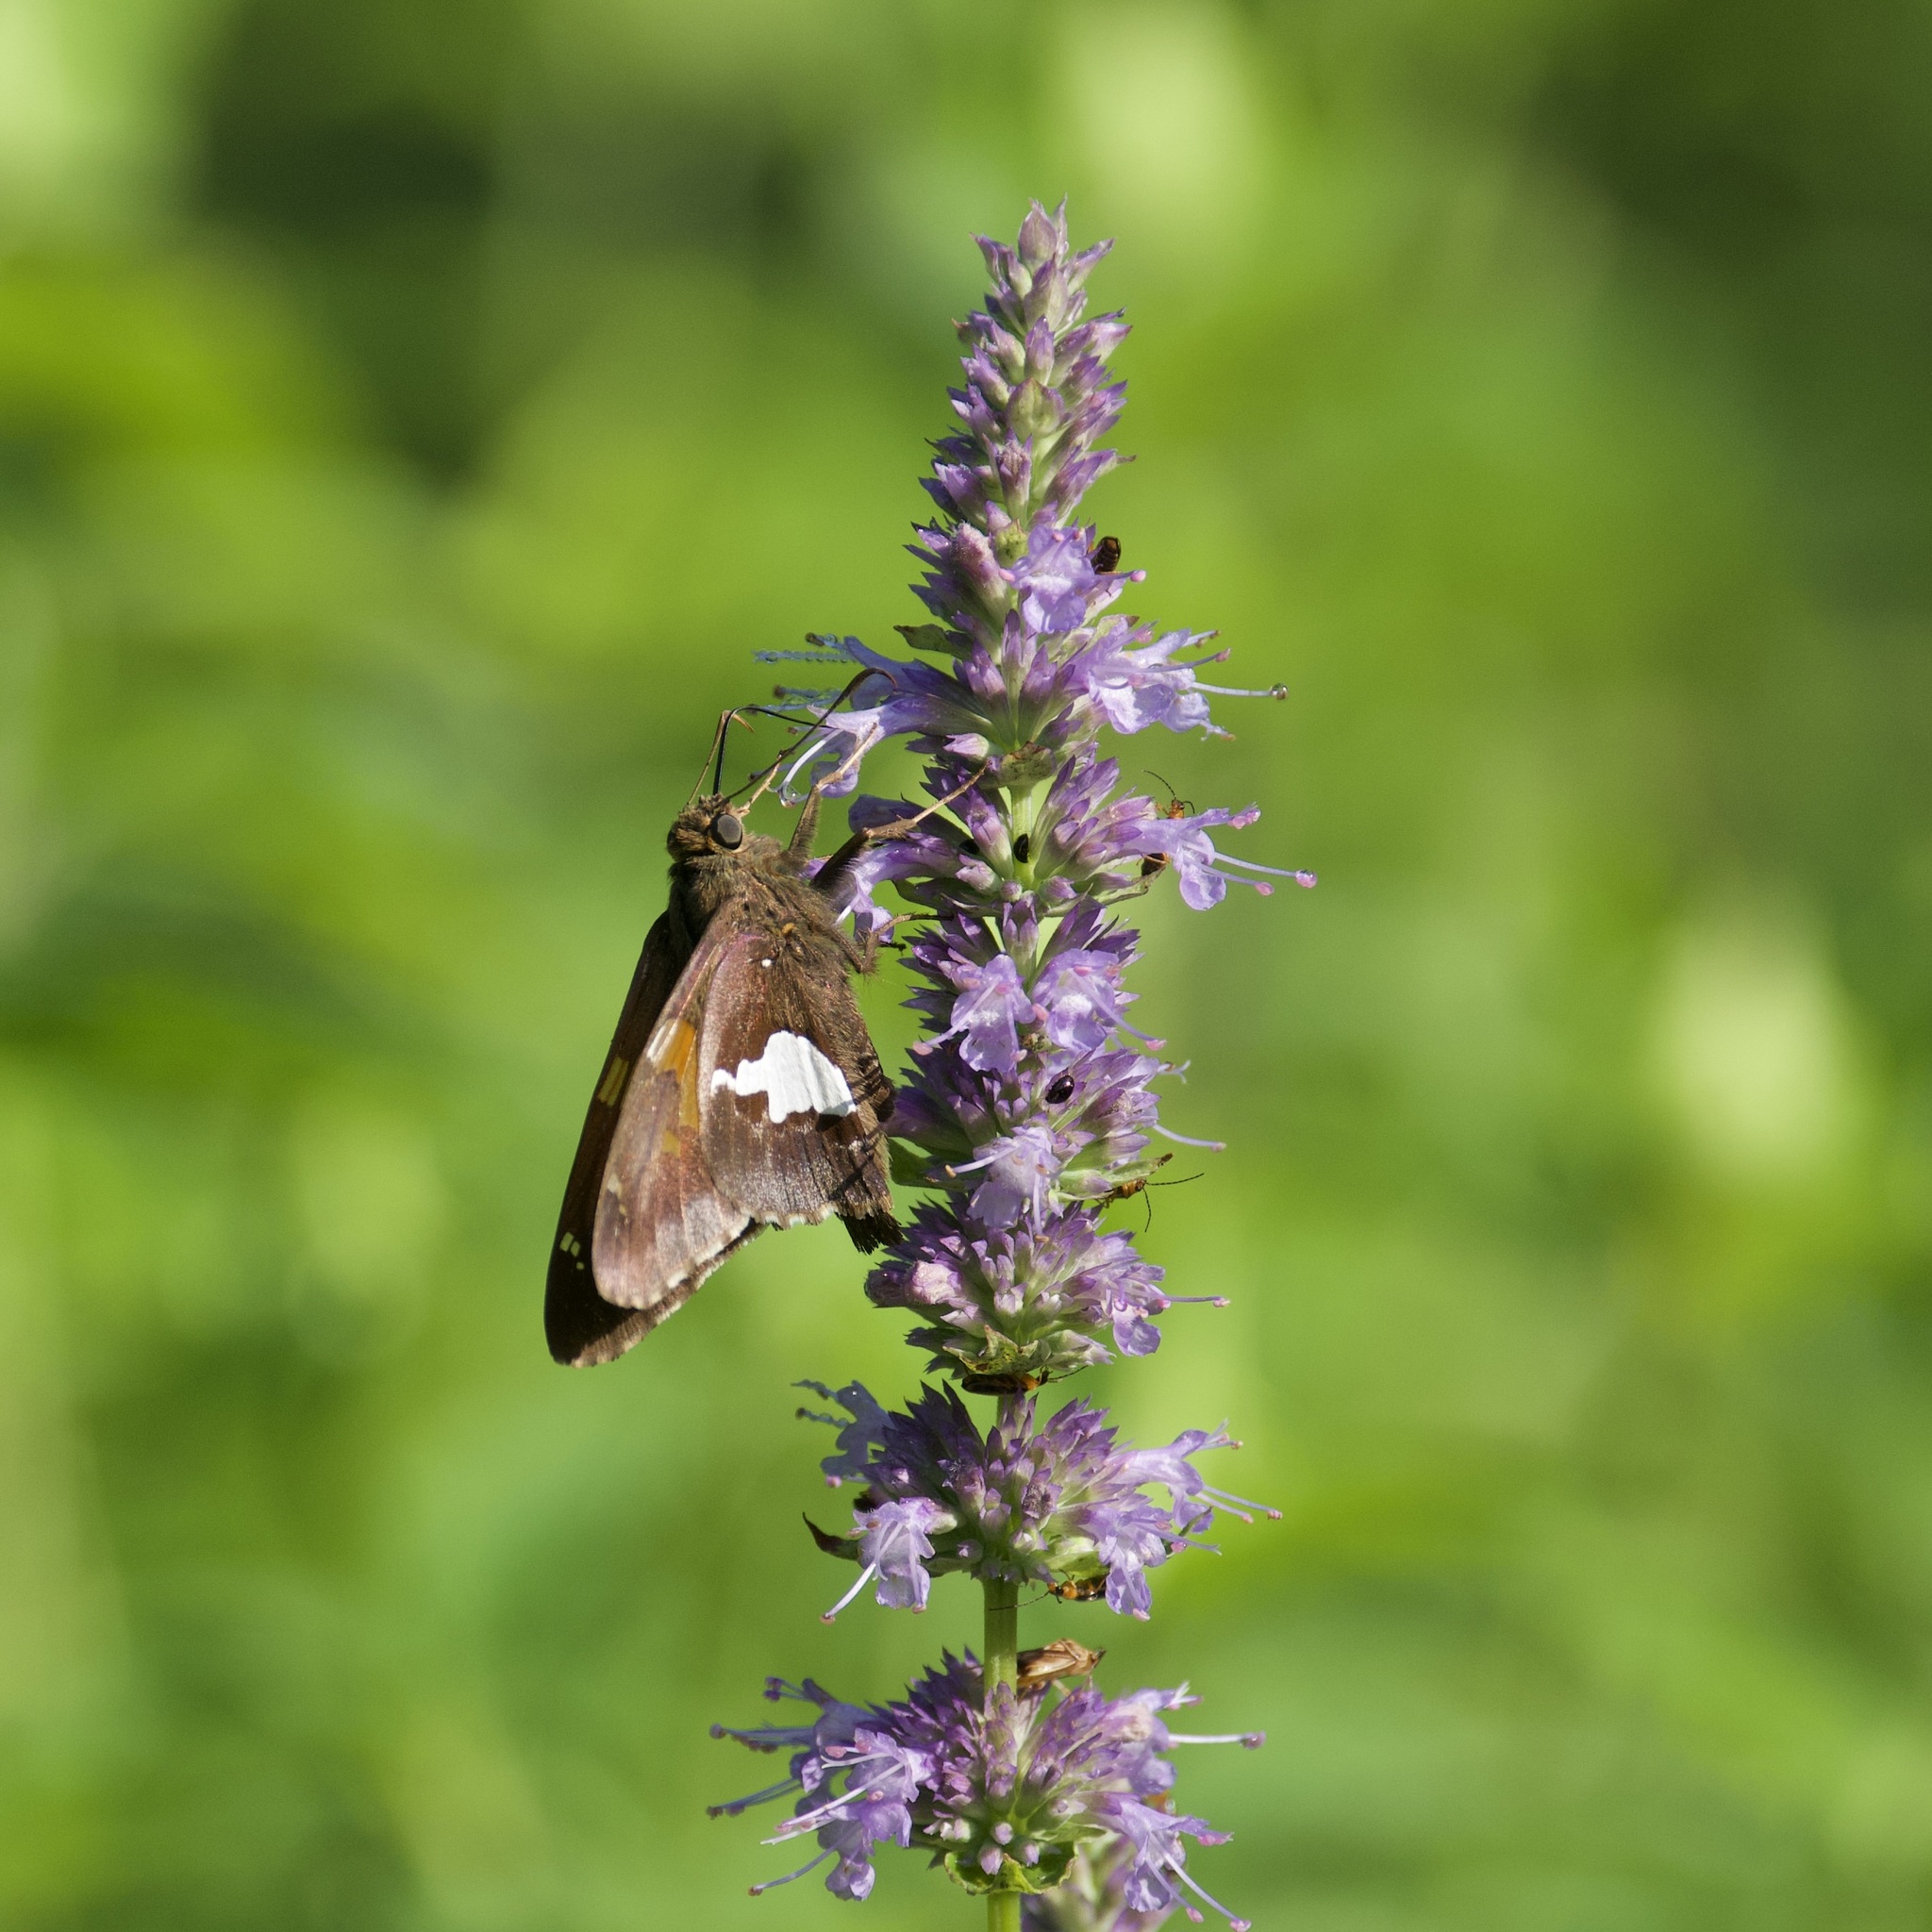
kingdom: Animalia
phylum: Arthropoda
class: Insecta
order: Lepidoptera
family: Hesperiidae
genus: Epargyreus
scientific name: Epargyreus clarus
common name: Silver-spotted skipper
